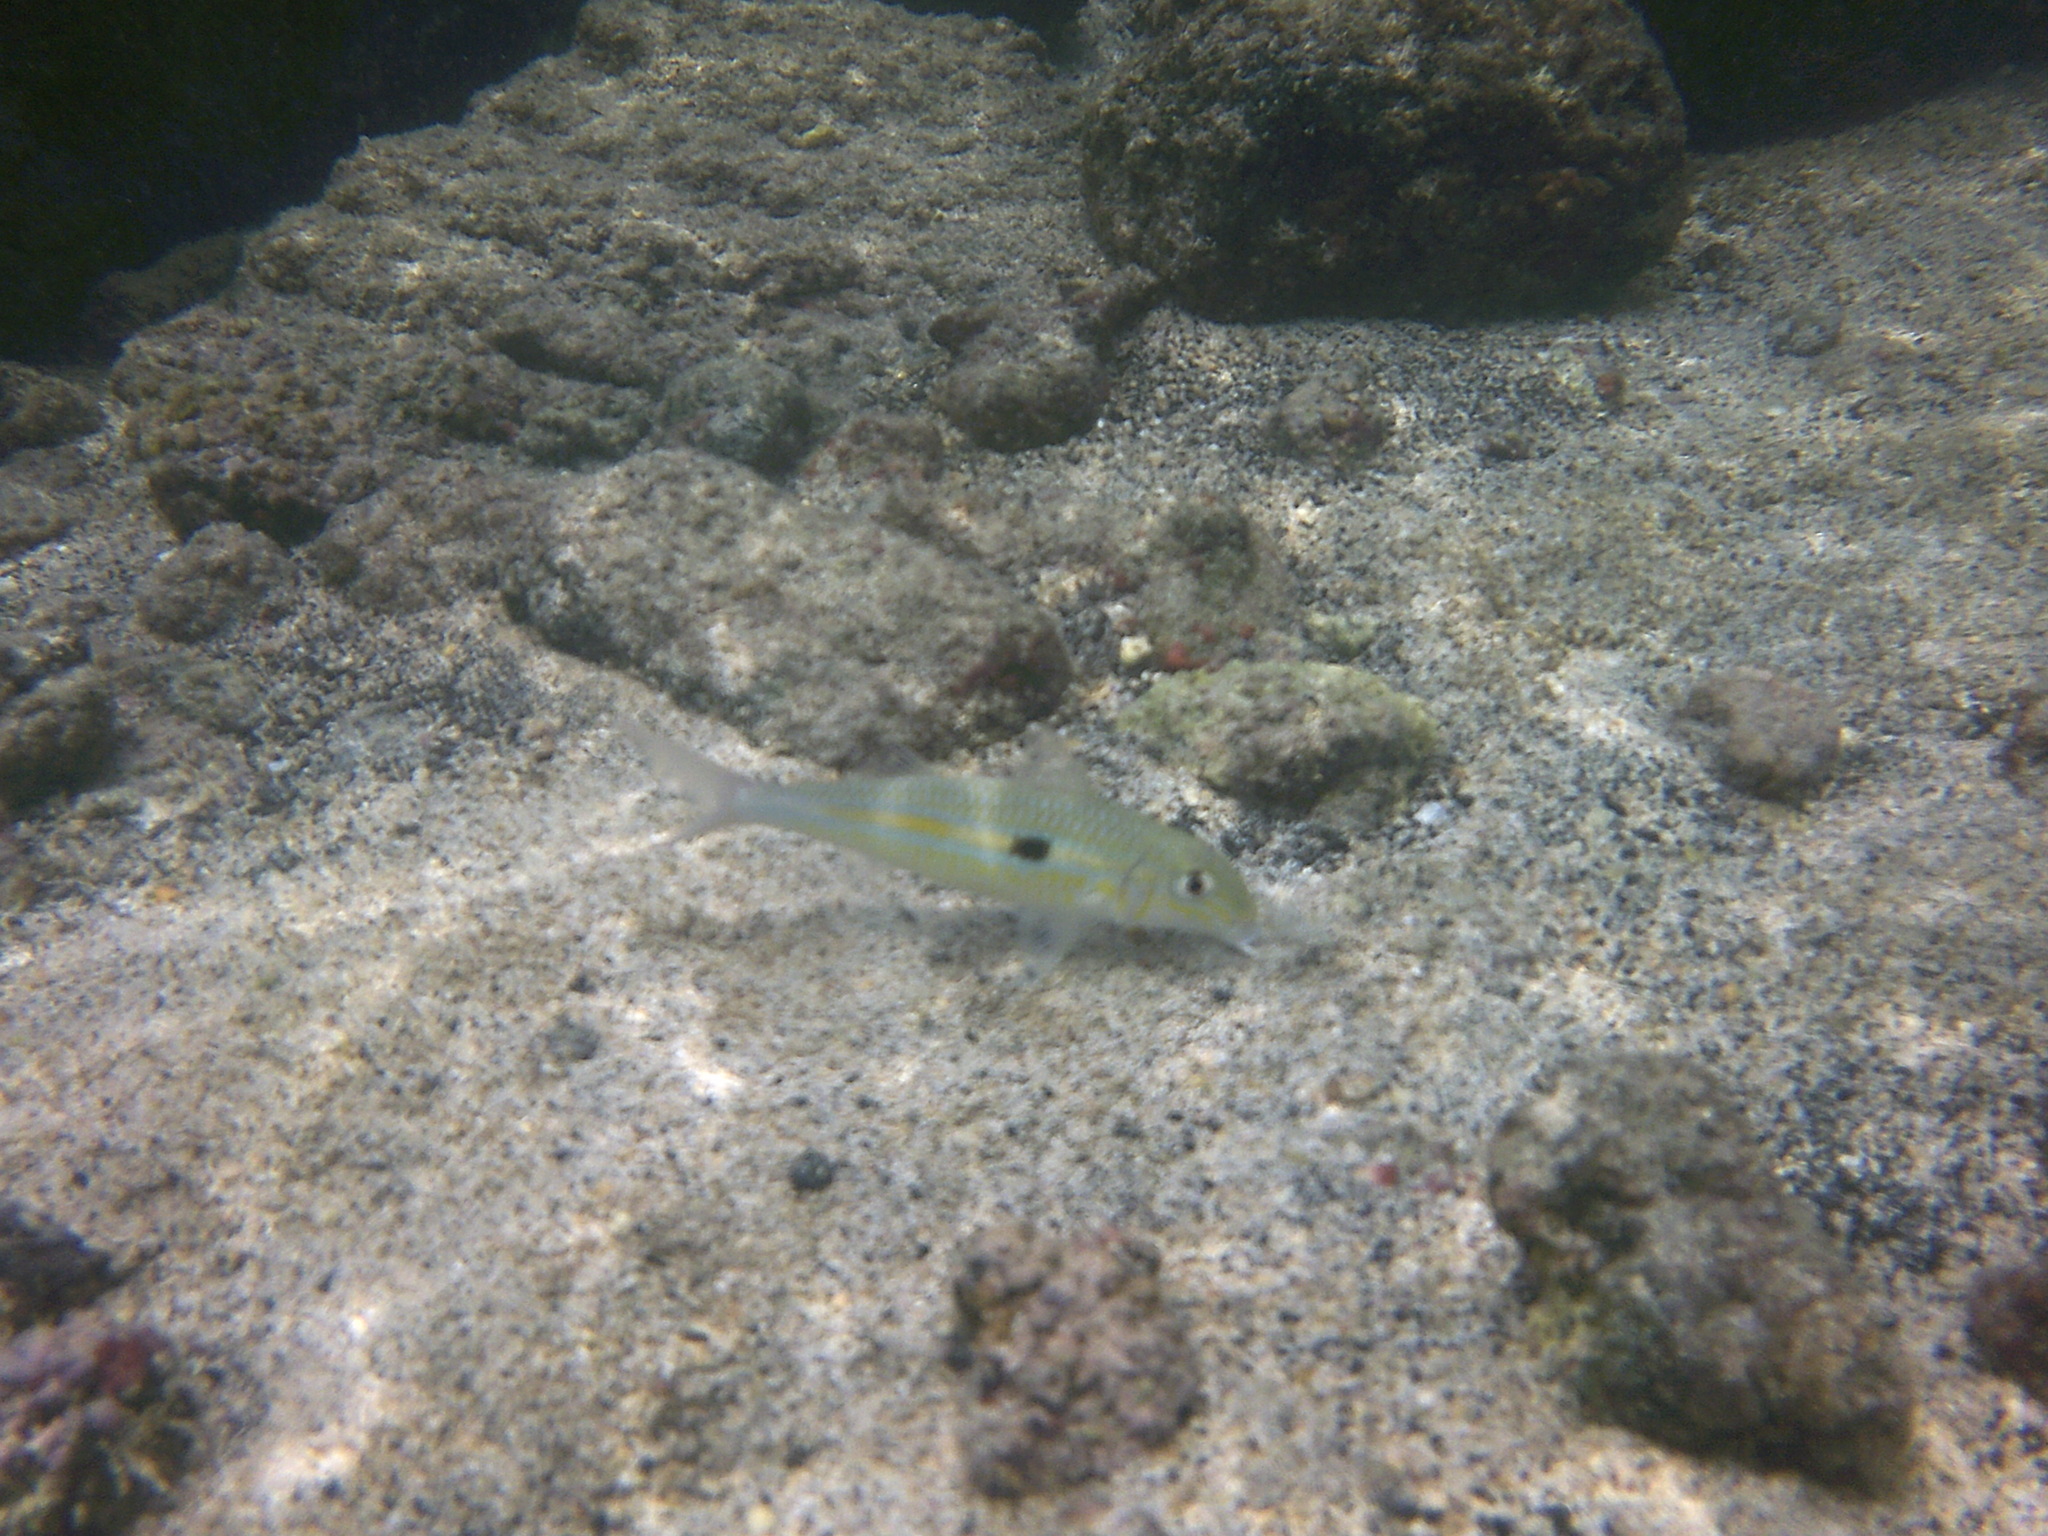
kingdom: Animalia
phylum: Chordata
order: Perciformes
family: Mullidae
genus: Mulloidichthys
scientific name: Mulloidichthys flavolineatus
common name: Yellowstripe goatfish
